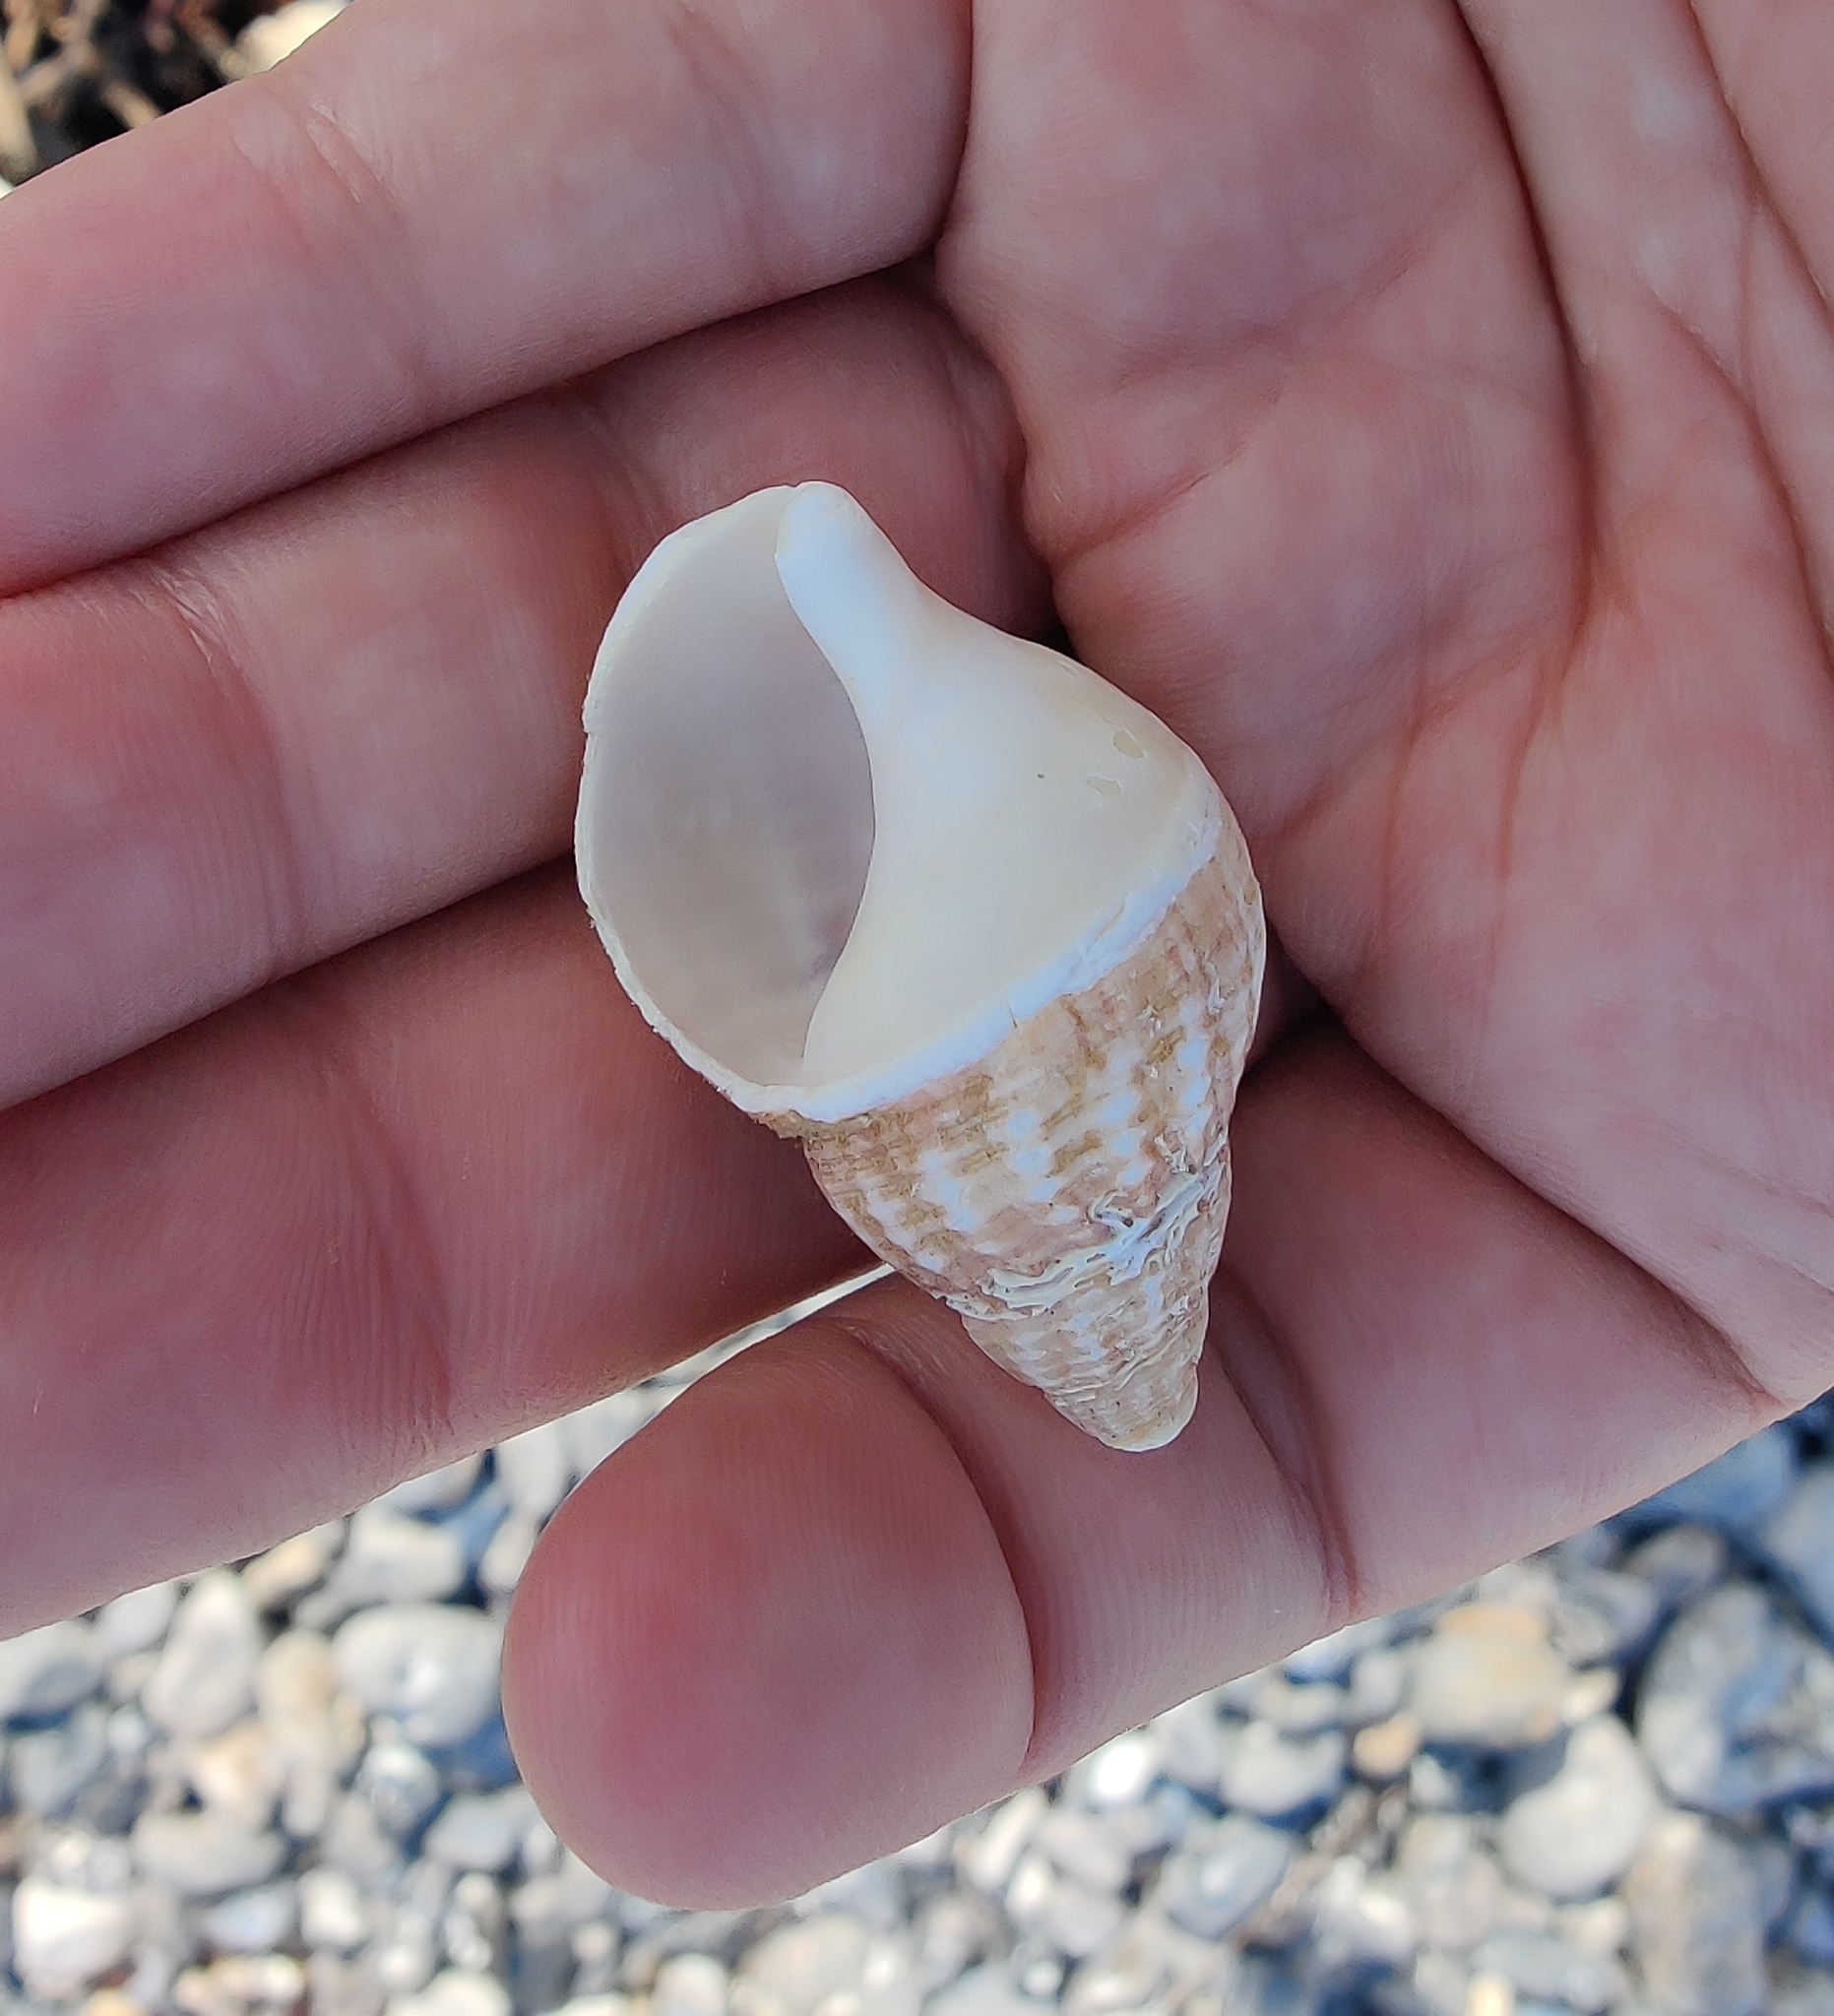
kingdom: Animalia
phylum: Mollusca
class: Gastropoda
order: Neogastropoda
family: Buccinidae
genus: Buccinum
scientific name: Buccinum undatum
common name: Common whelk
